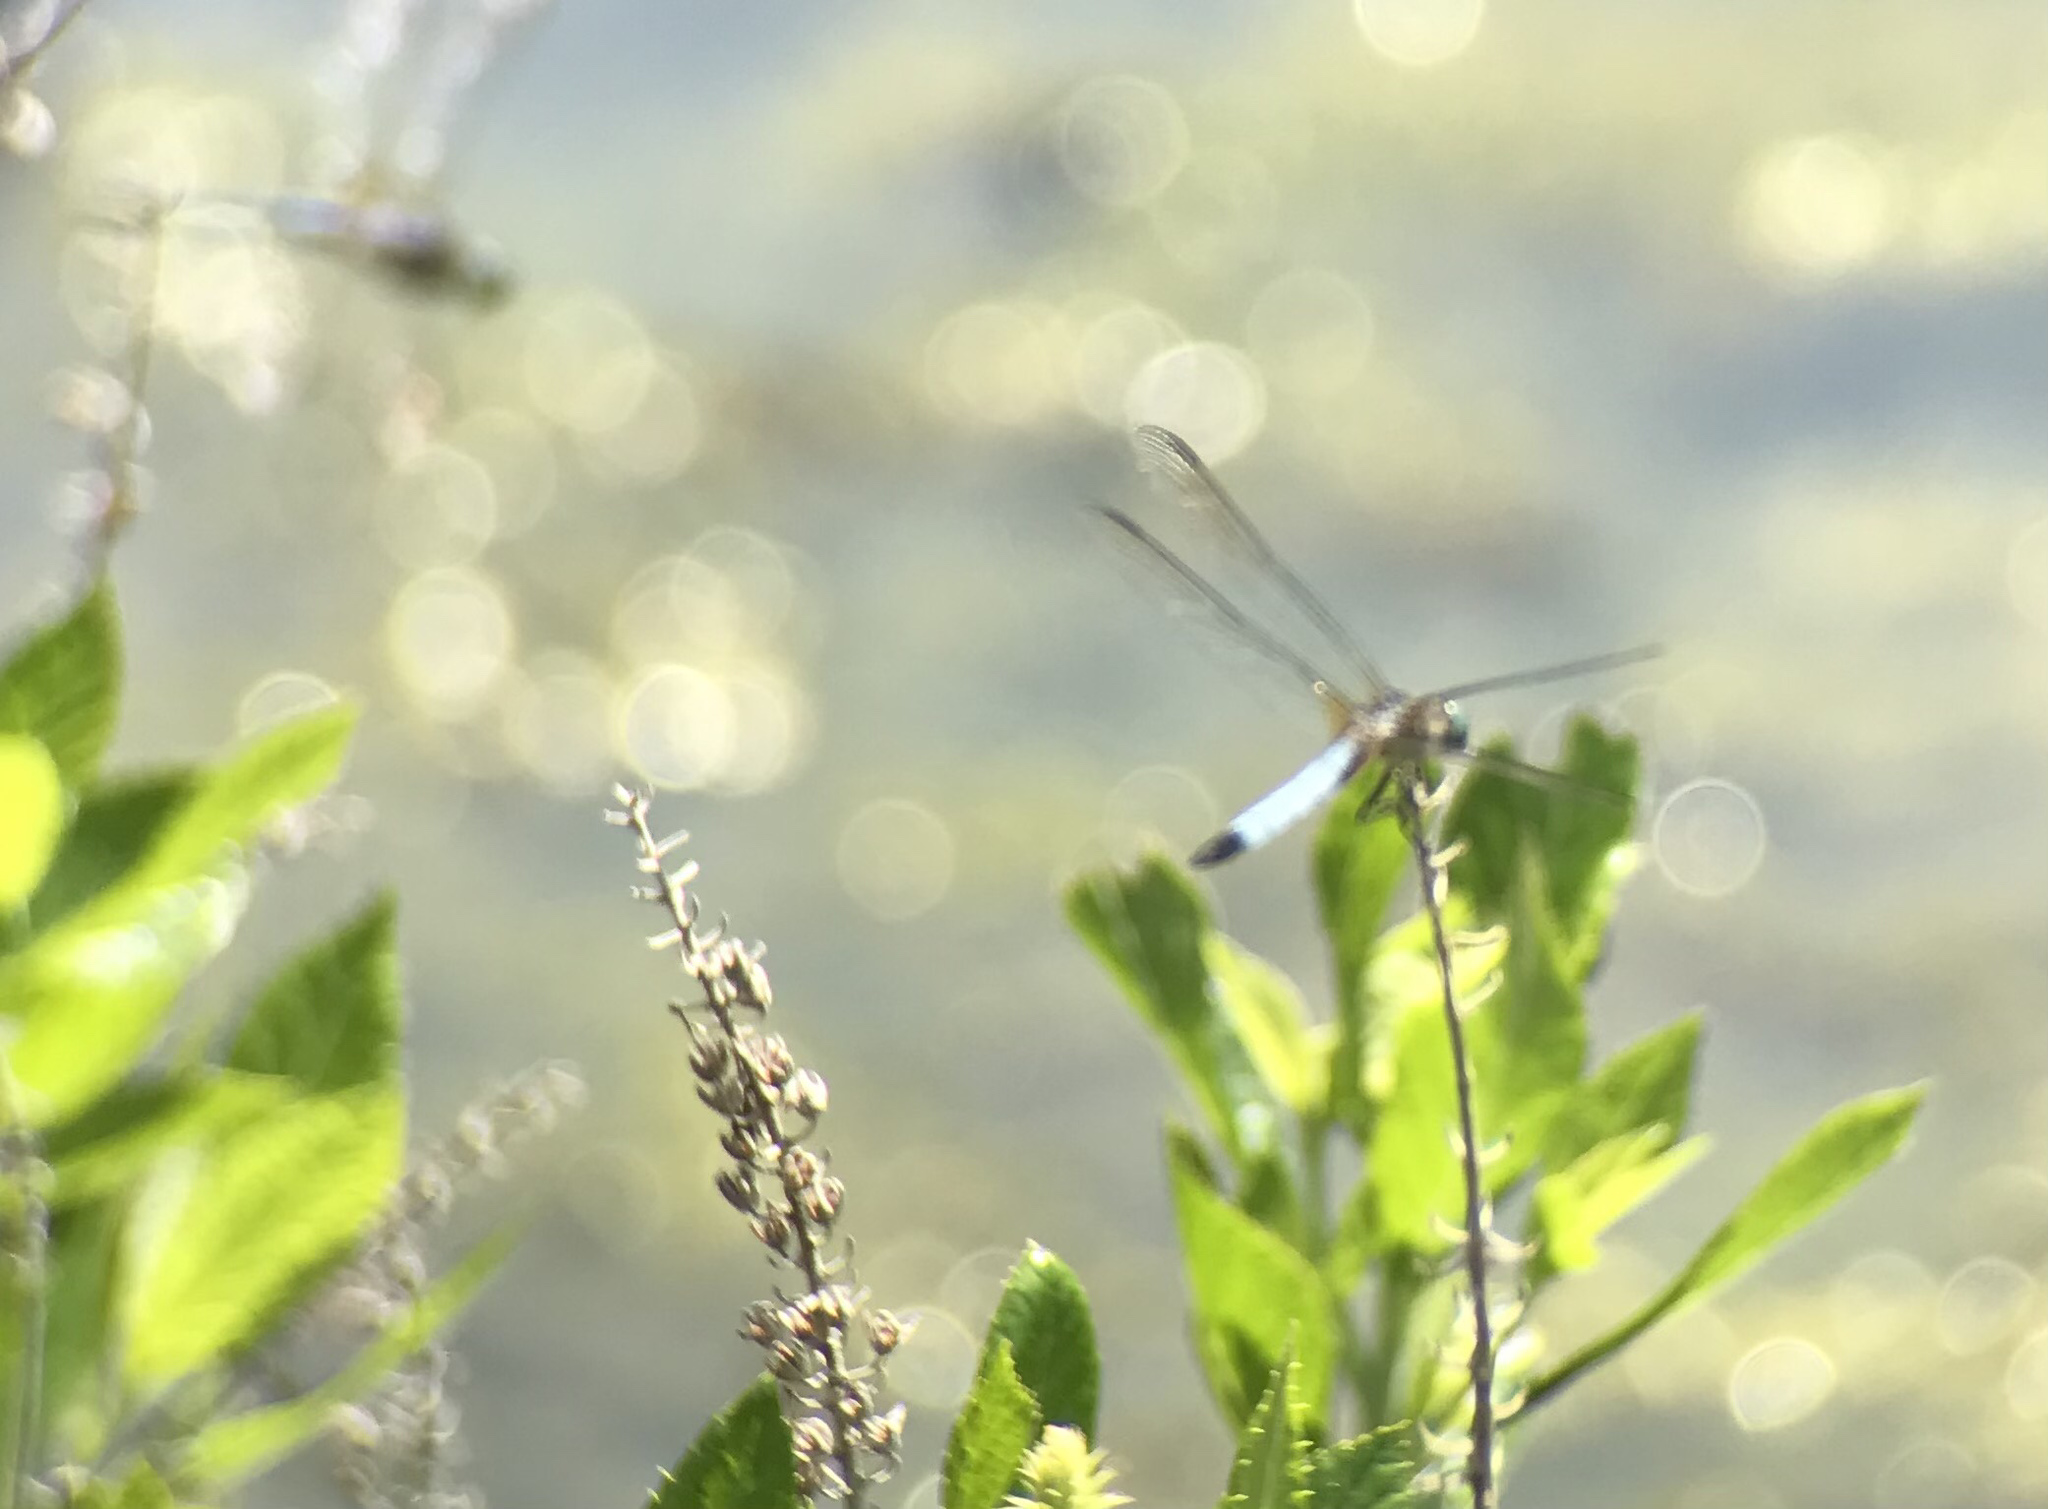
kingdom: Animalia
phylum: Arthropoda
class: Insecta
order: Odonata
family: Libellulidae
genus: Pachydiplax
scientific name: Pachydiplax longipennis
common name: Blue dasher
